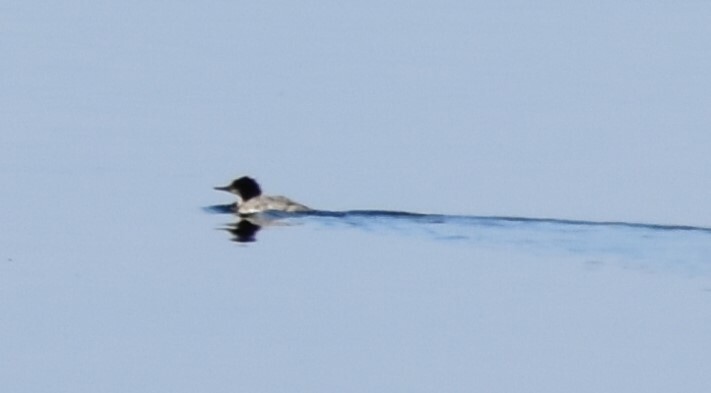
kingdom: Animalia
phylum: Chordata
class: Aves
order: Anseriformes
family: Anatidae
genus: Mergus
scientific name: Mergus merganser
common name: Common merganser
